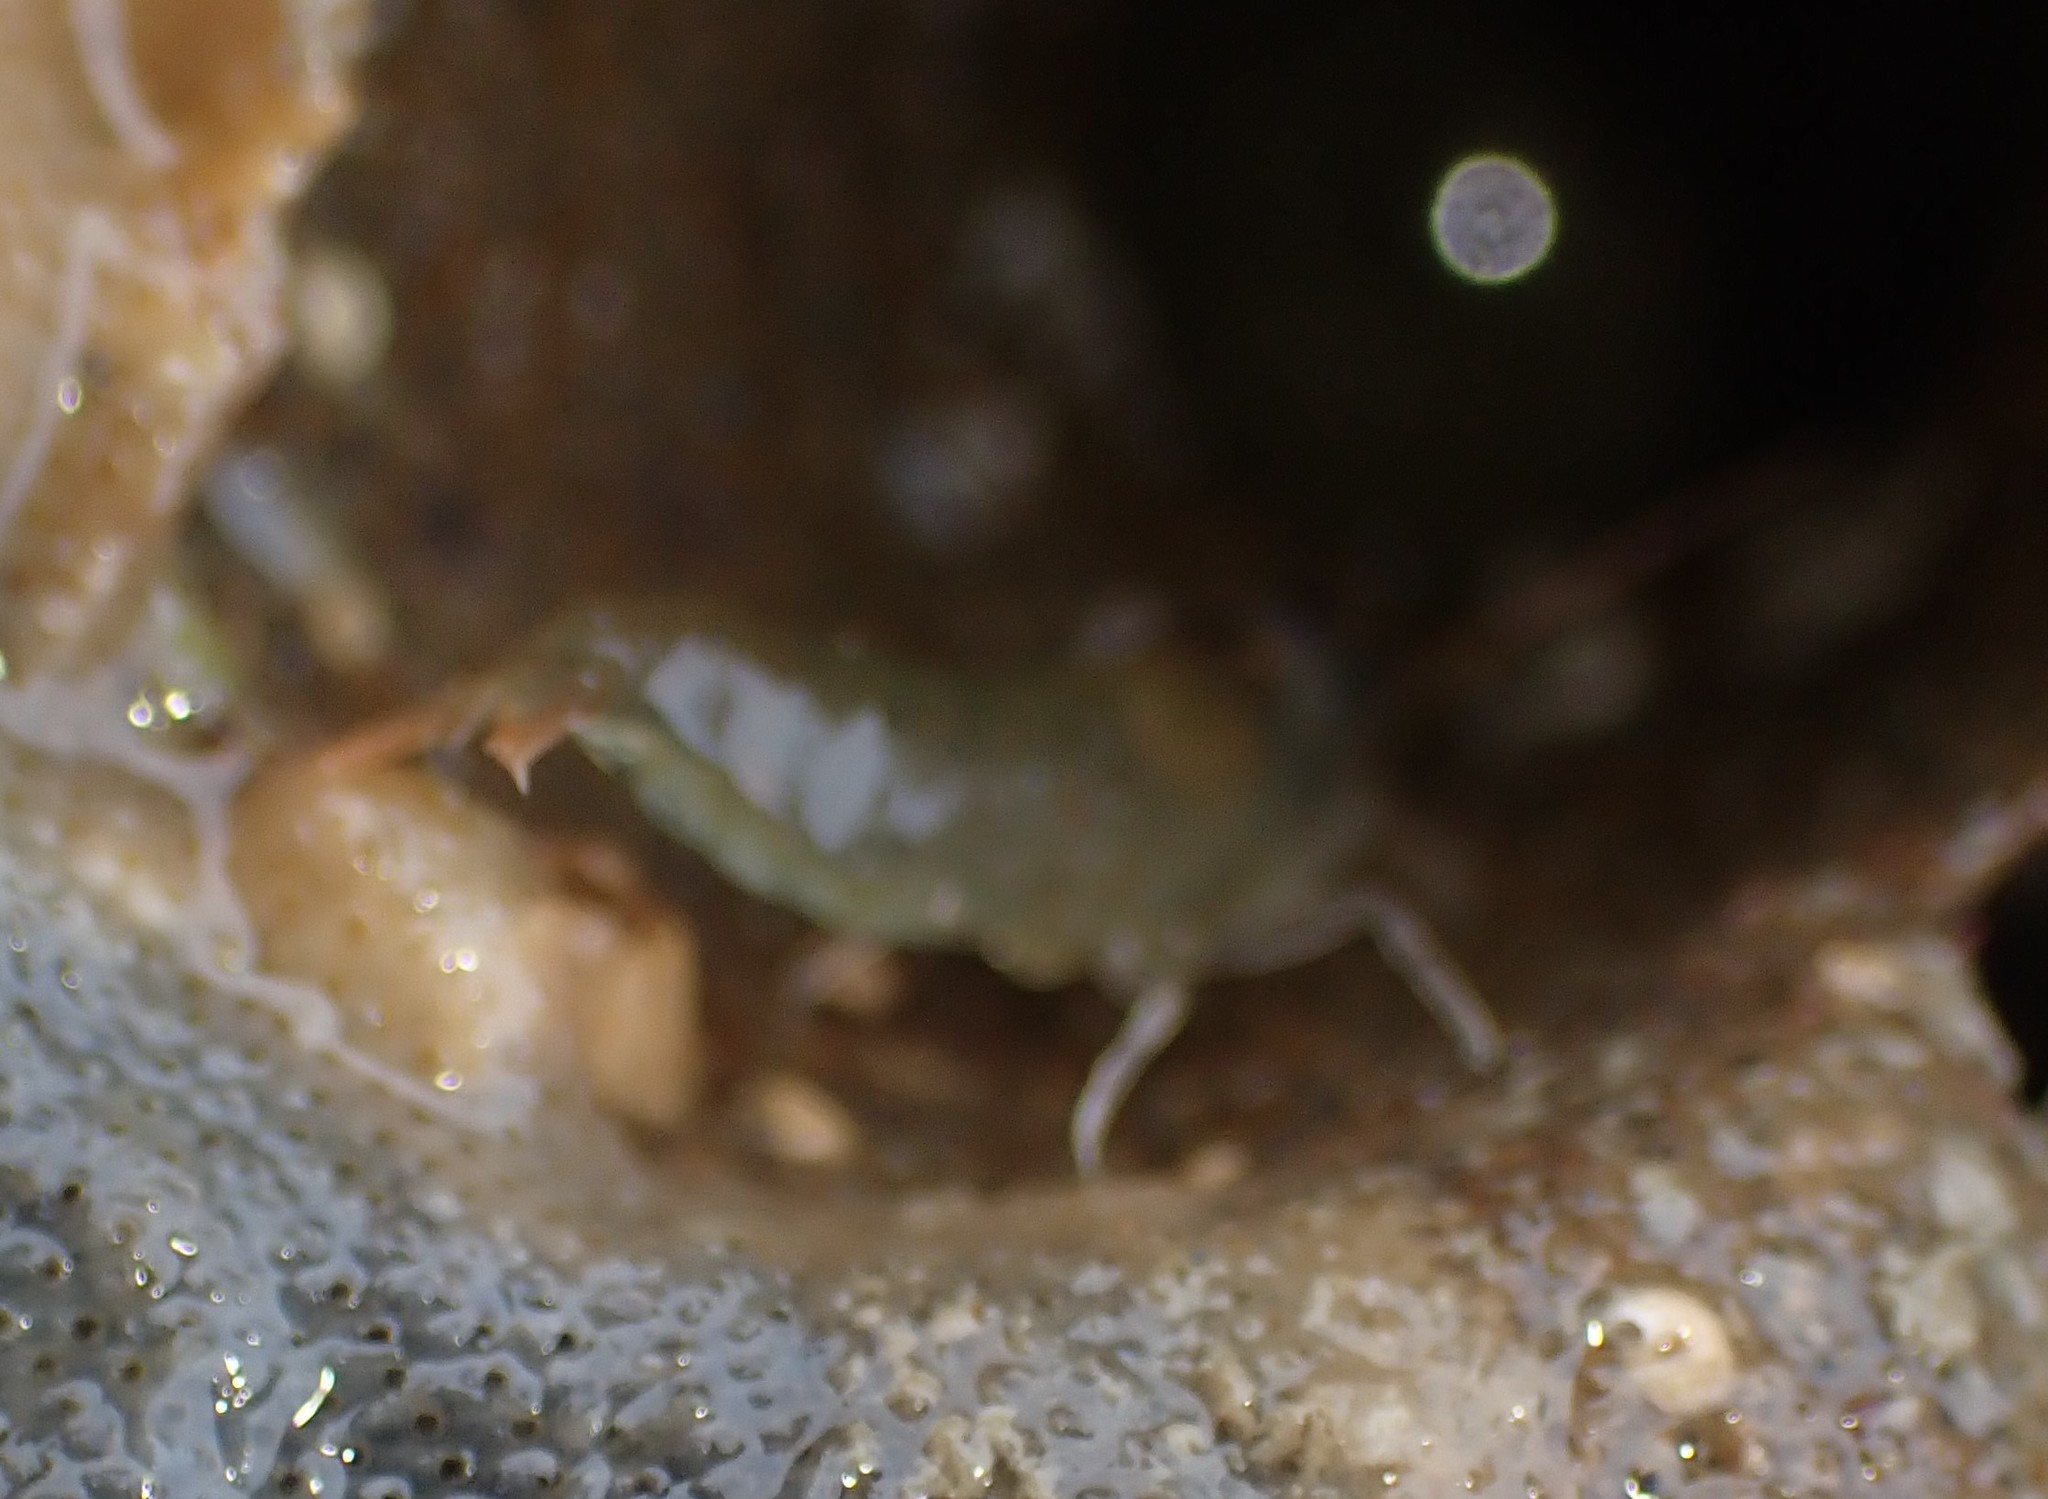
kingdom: Animalia
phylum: Arthropoda
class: Malacostraca
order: Decapoda
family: Alpheidae
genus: Betaeopsis
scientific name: Betaeopsis aequimanus
